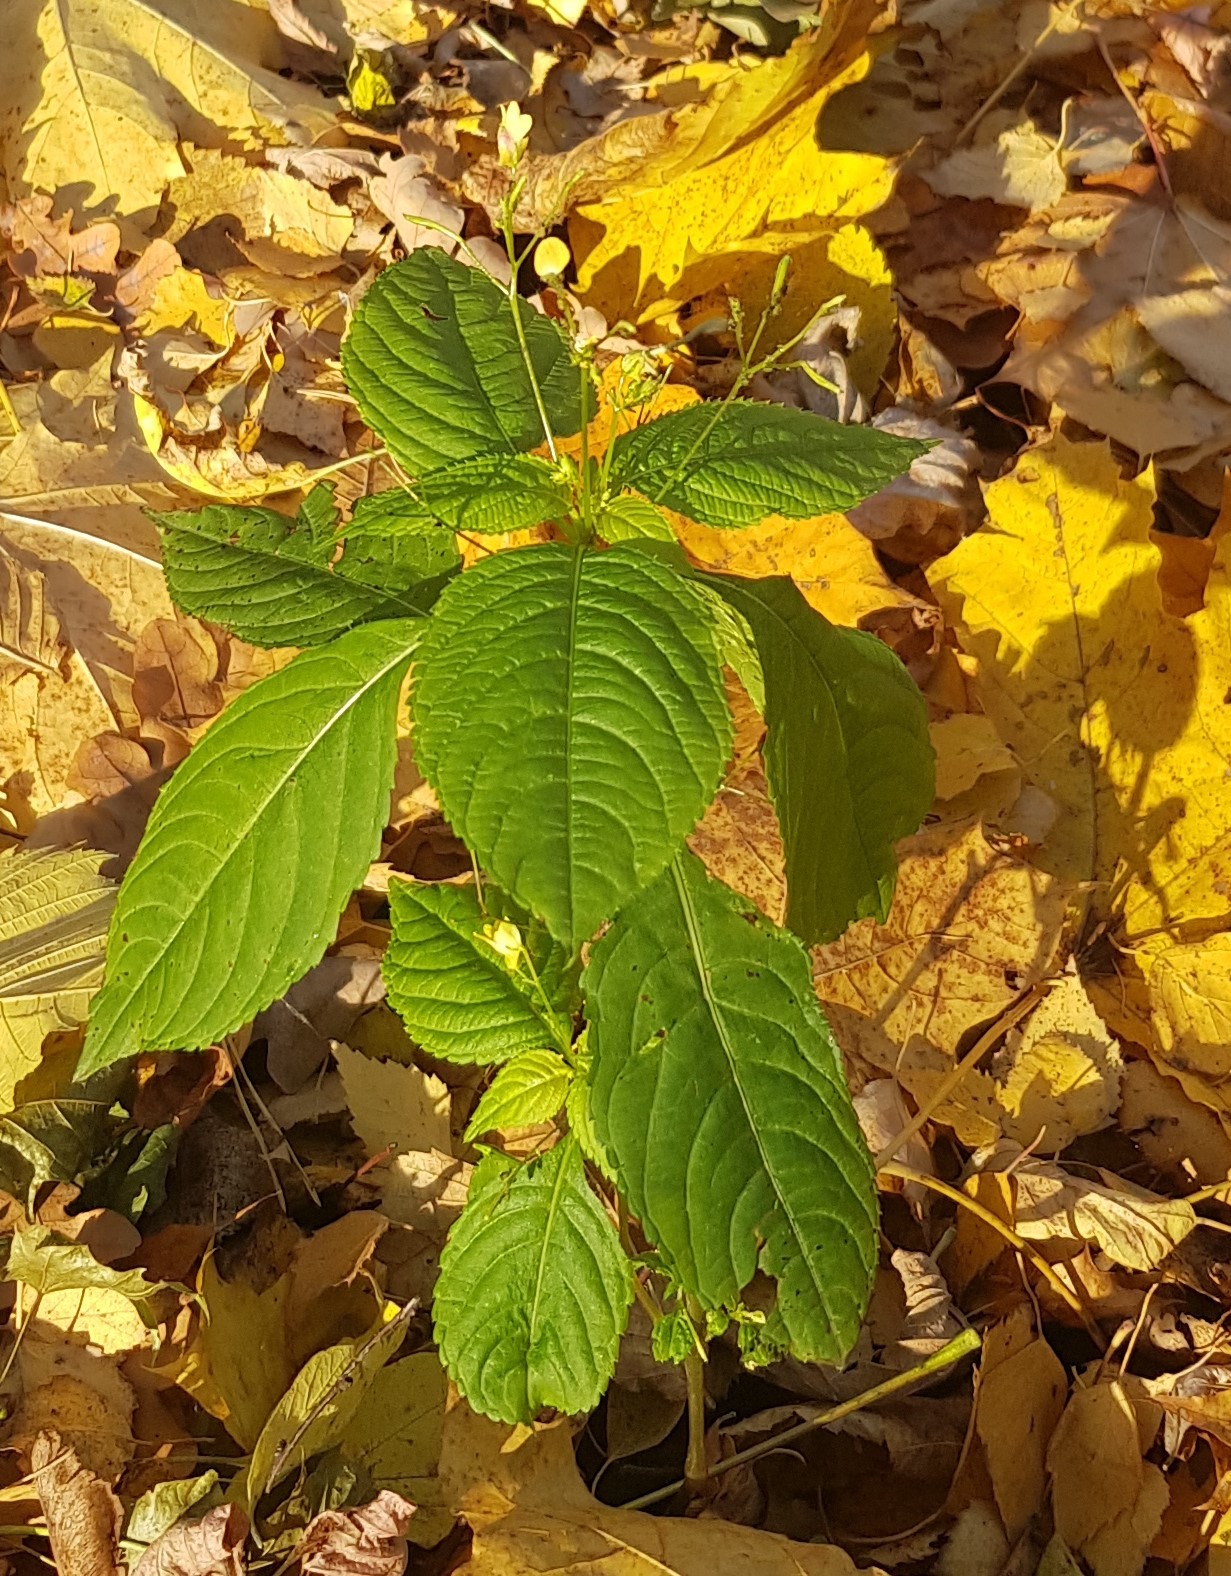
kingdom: Plantae
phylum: Tracheophyta
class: Magnoliopsida
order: Ericales
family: Balsaminaceae
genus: Impatiens
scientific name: Impatiens parviflora
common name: Small balsam
